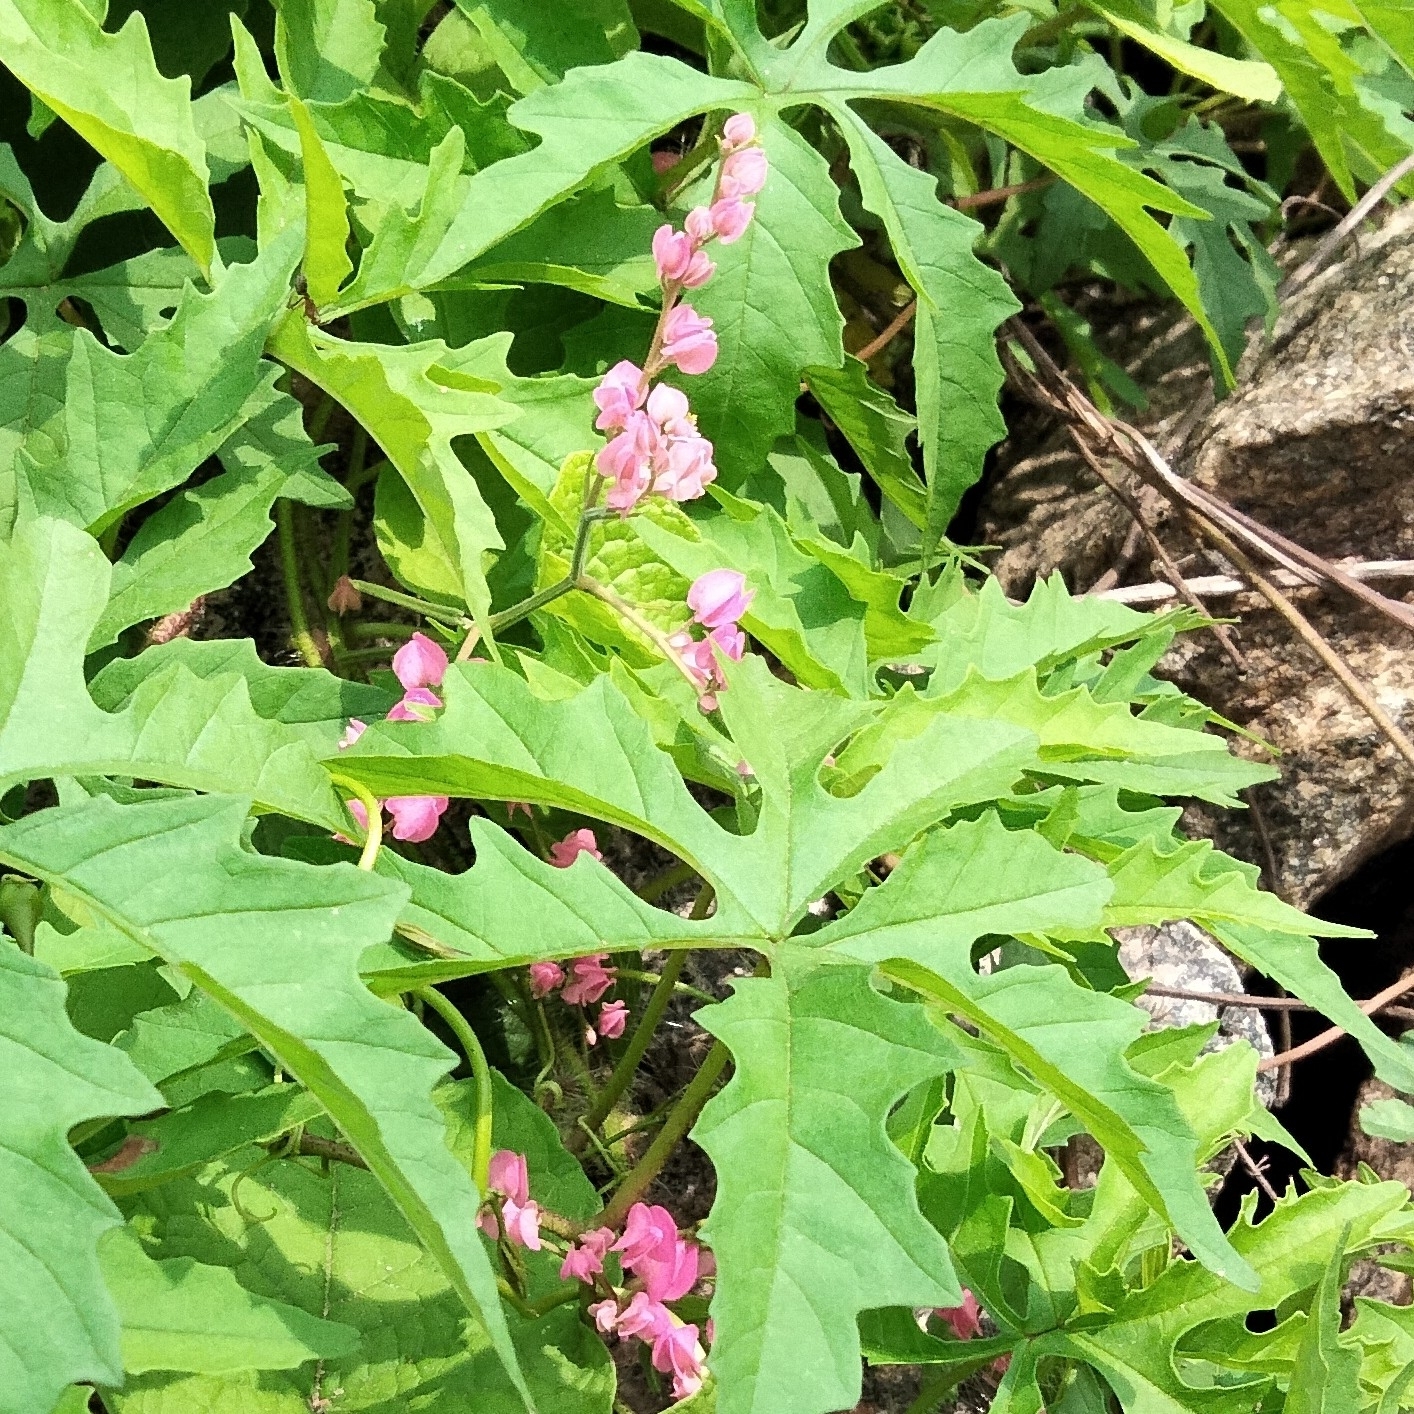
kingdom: Plantae
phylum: Tracheophyta
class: Magnoliopsida
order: Caryophyllales
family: Polygonaceae
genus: Antigonon
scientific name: Antigonon leptopus
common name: Coral vine
